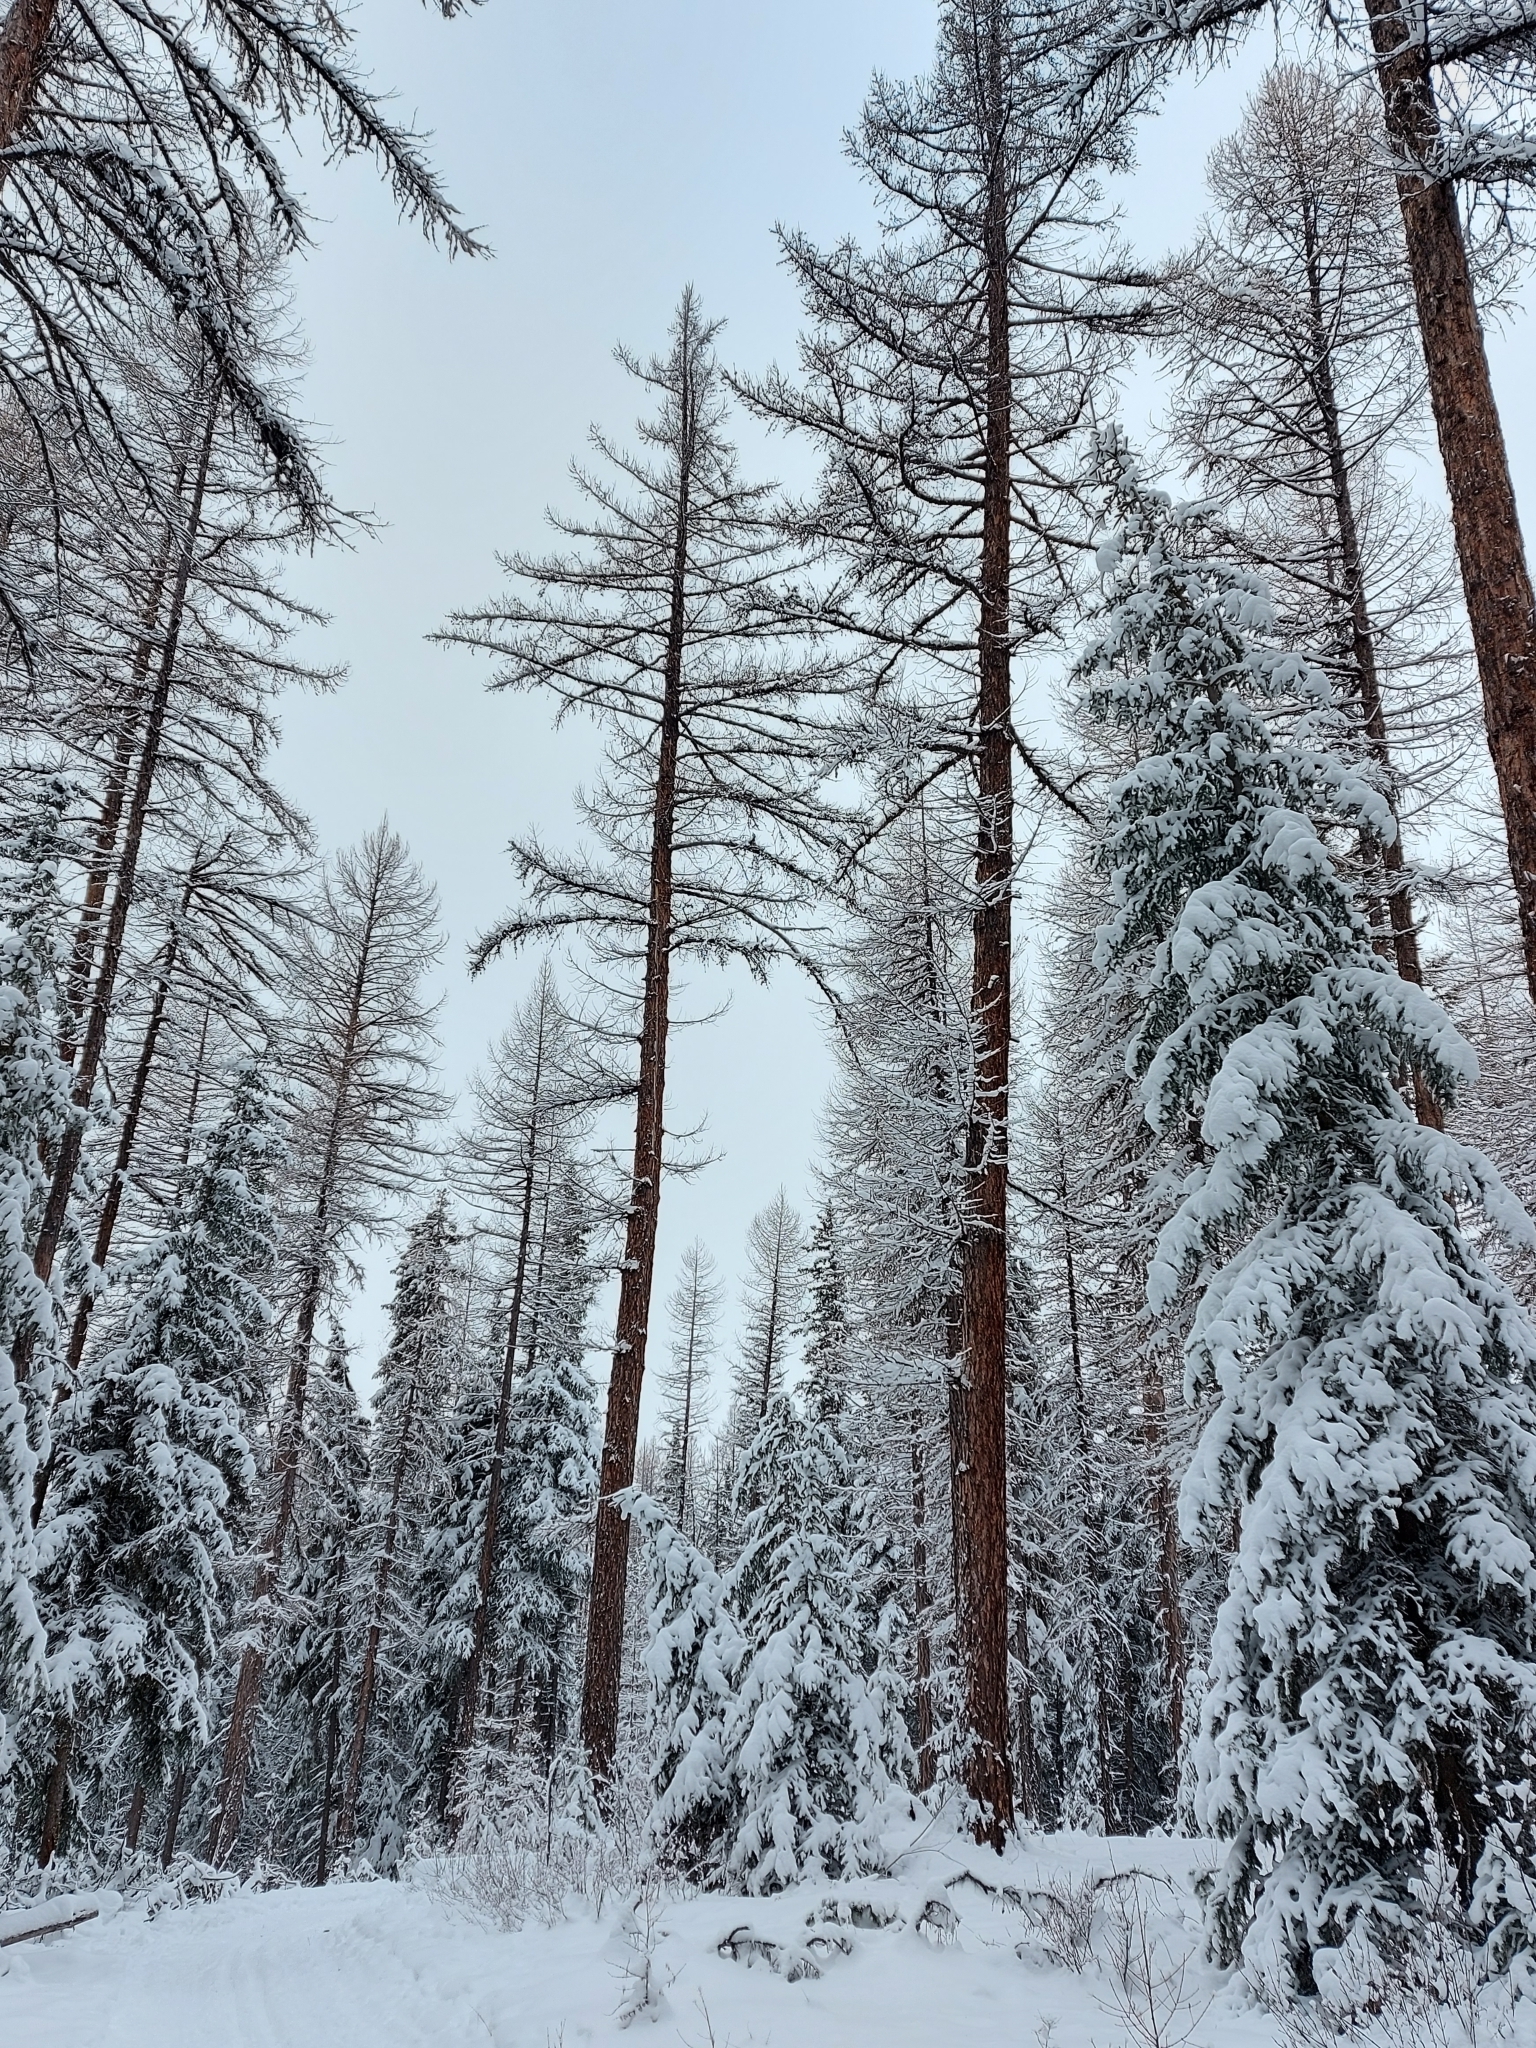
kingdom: Plantae
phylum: Tracheophyta
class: Pinopsida
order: Pinales
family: Pinaceae
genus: Larix
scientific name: Larix occidentalis
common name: Western larch
